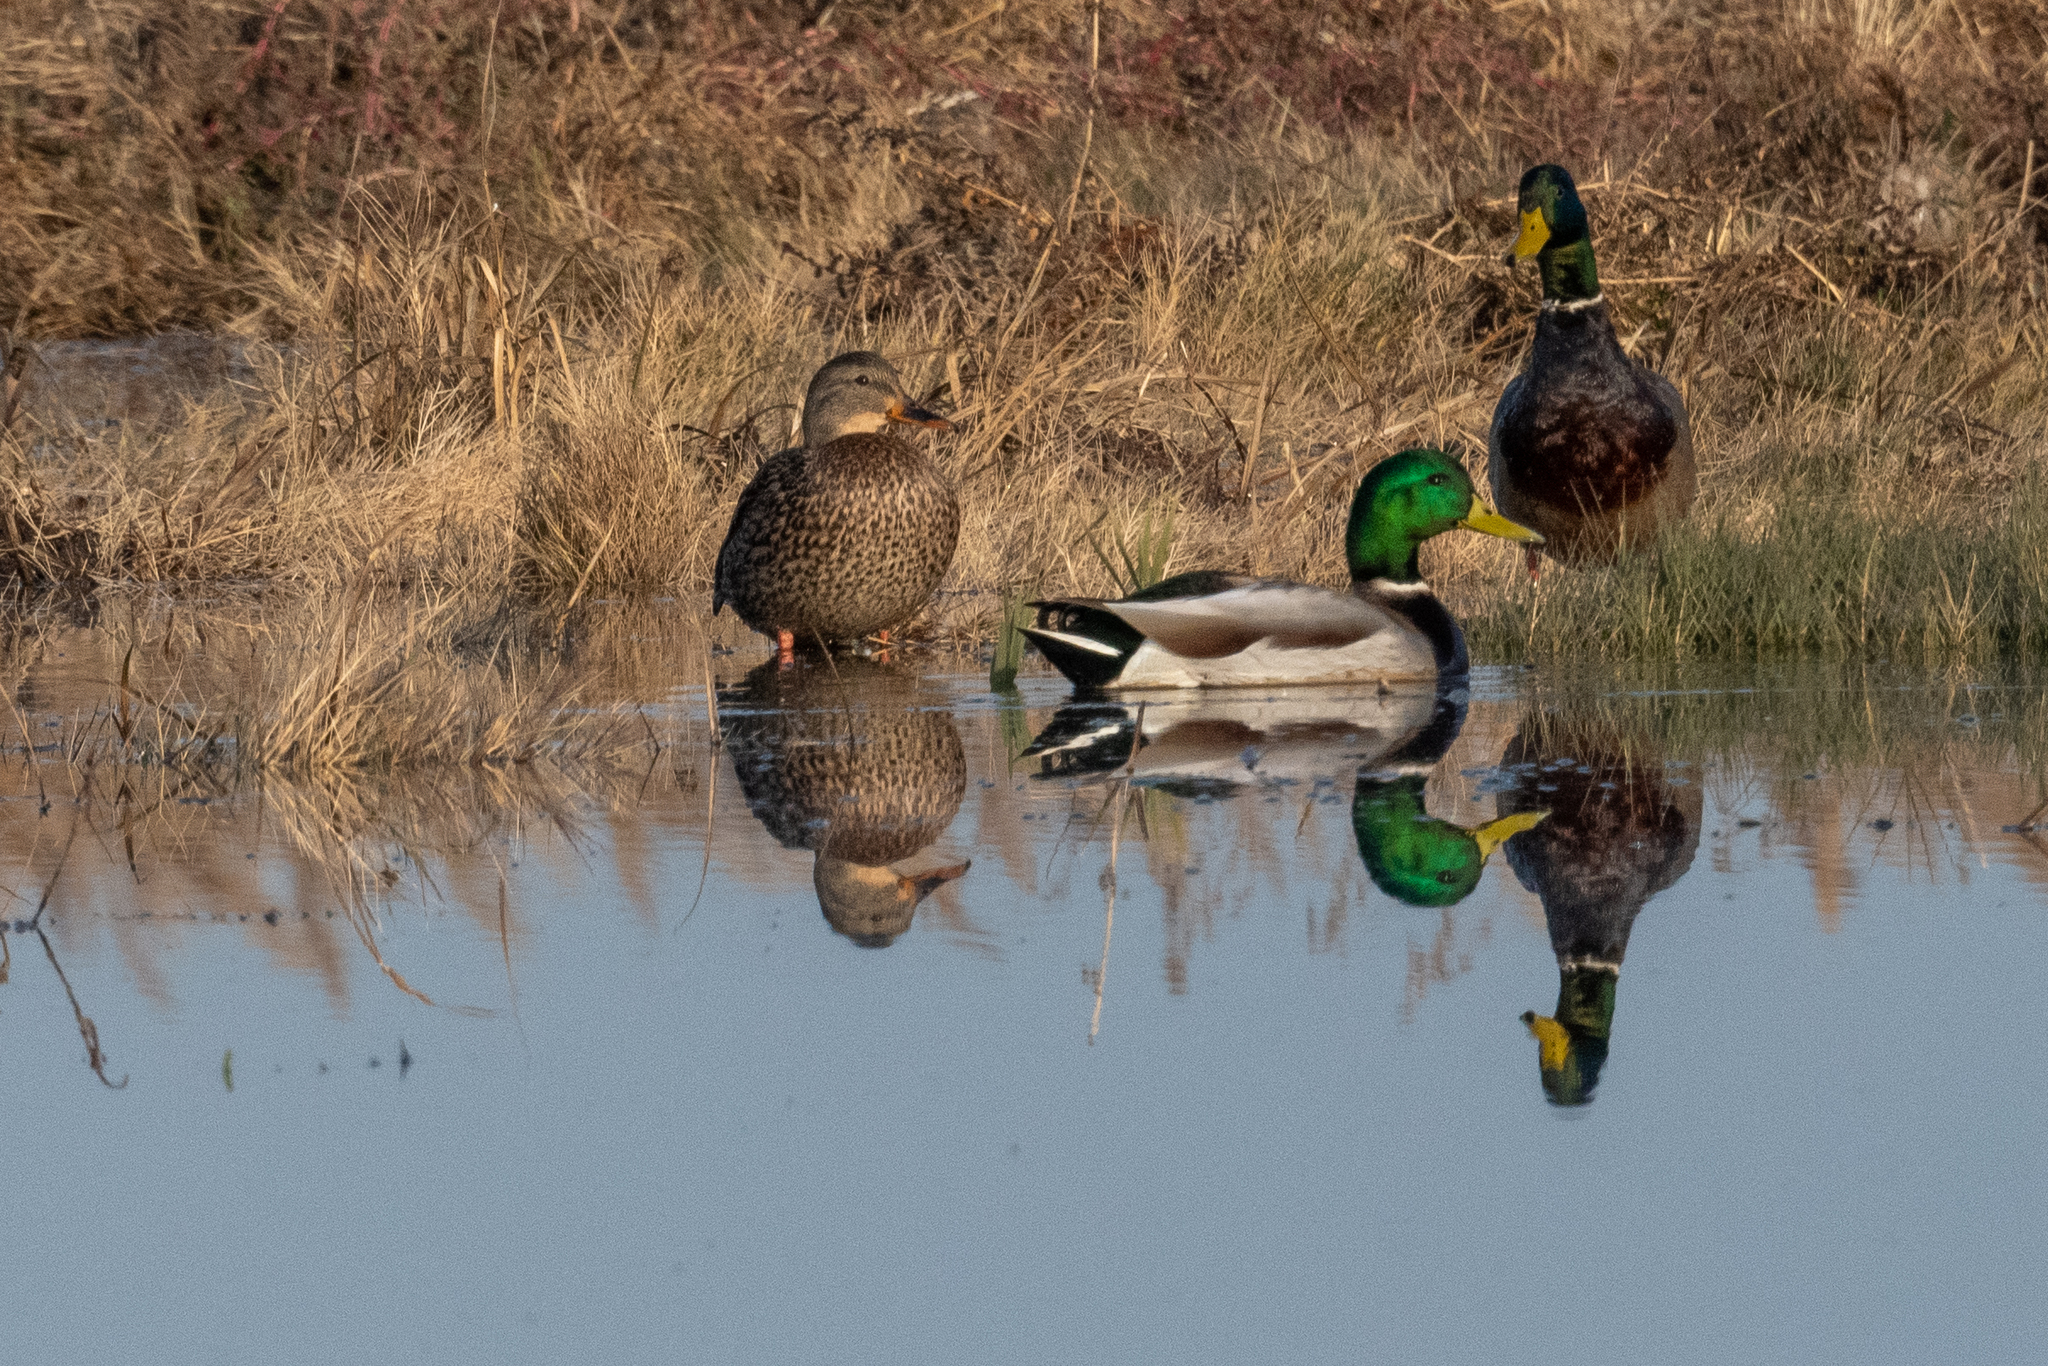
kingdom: Animalia
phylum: Chordata
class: Aves
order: Anseriformes
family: Anatidae
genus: Anas
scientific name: Anas platyrhynchos
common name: Mallard
